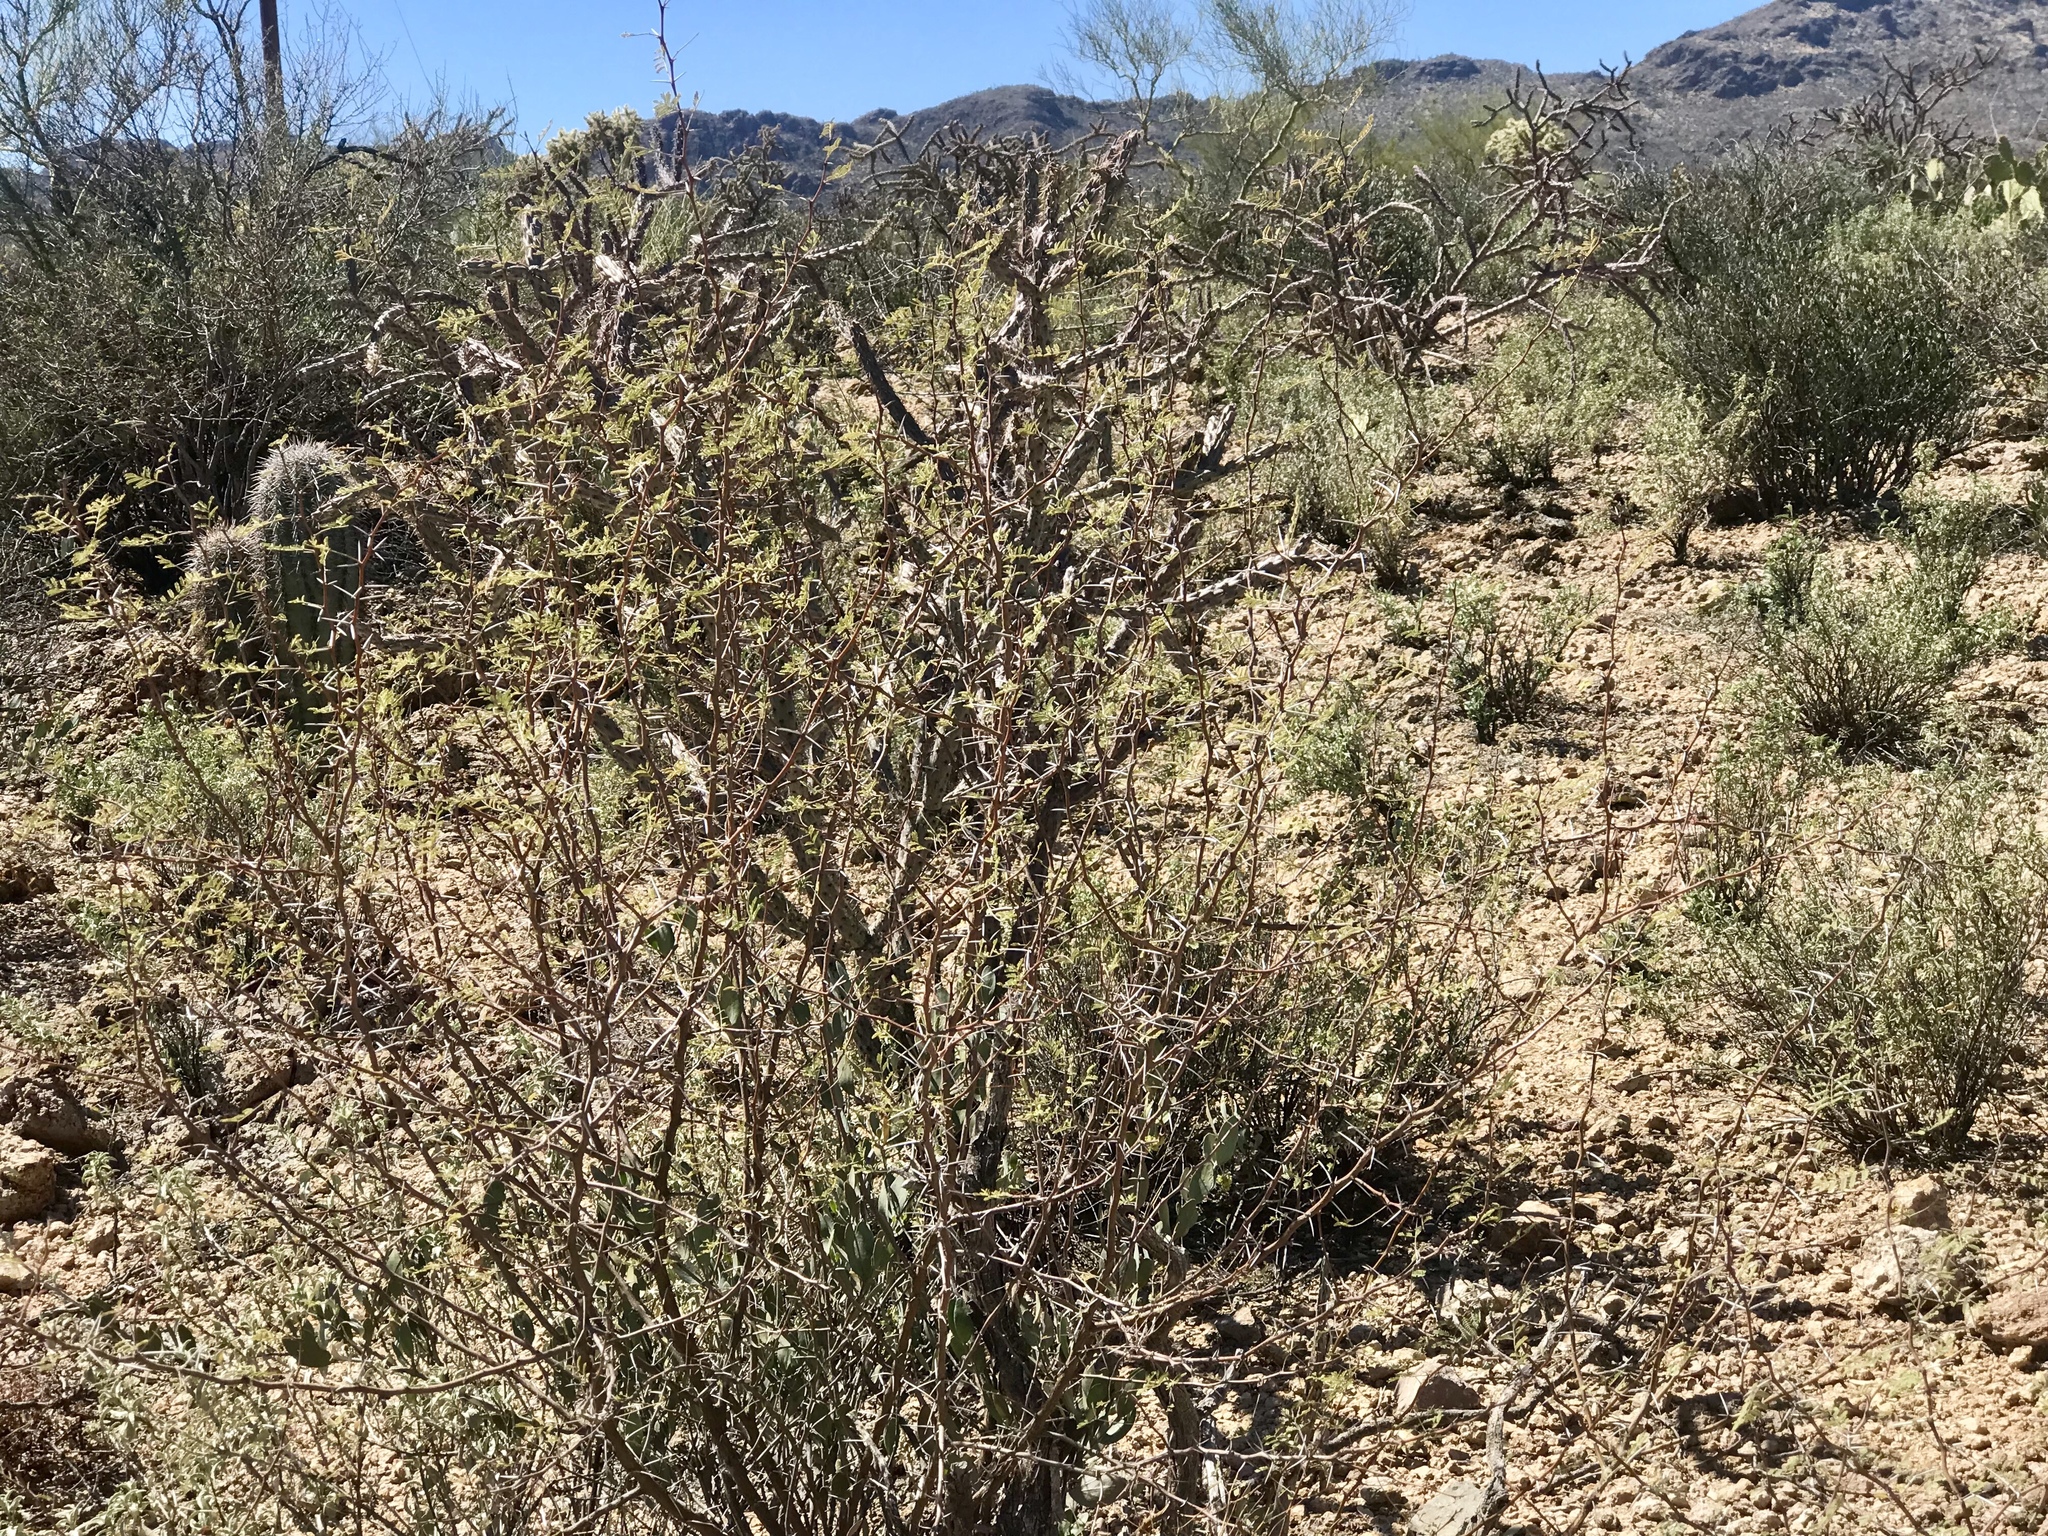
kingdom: Plantae
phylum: Tracheophyta
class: Magnoliopsida
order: Fabales
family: Fabaceae
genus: Vachellia
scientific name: Vachellia constricta
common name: Mescat acacia
